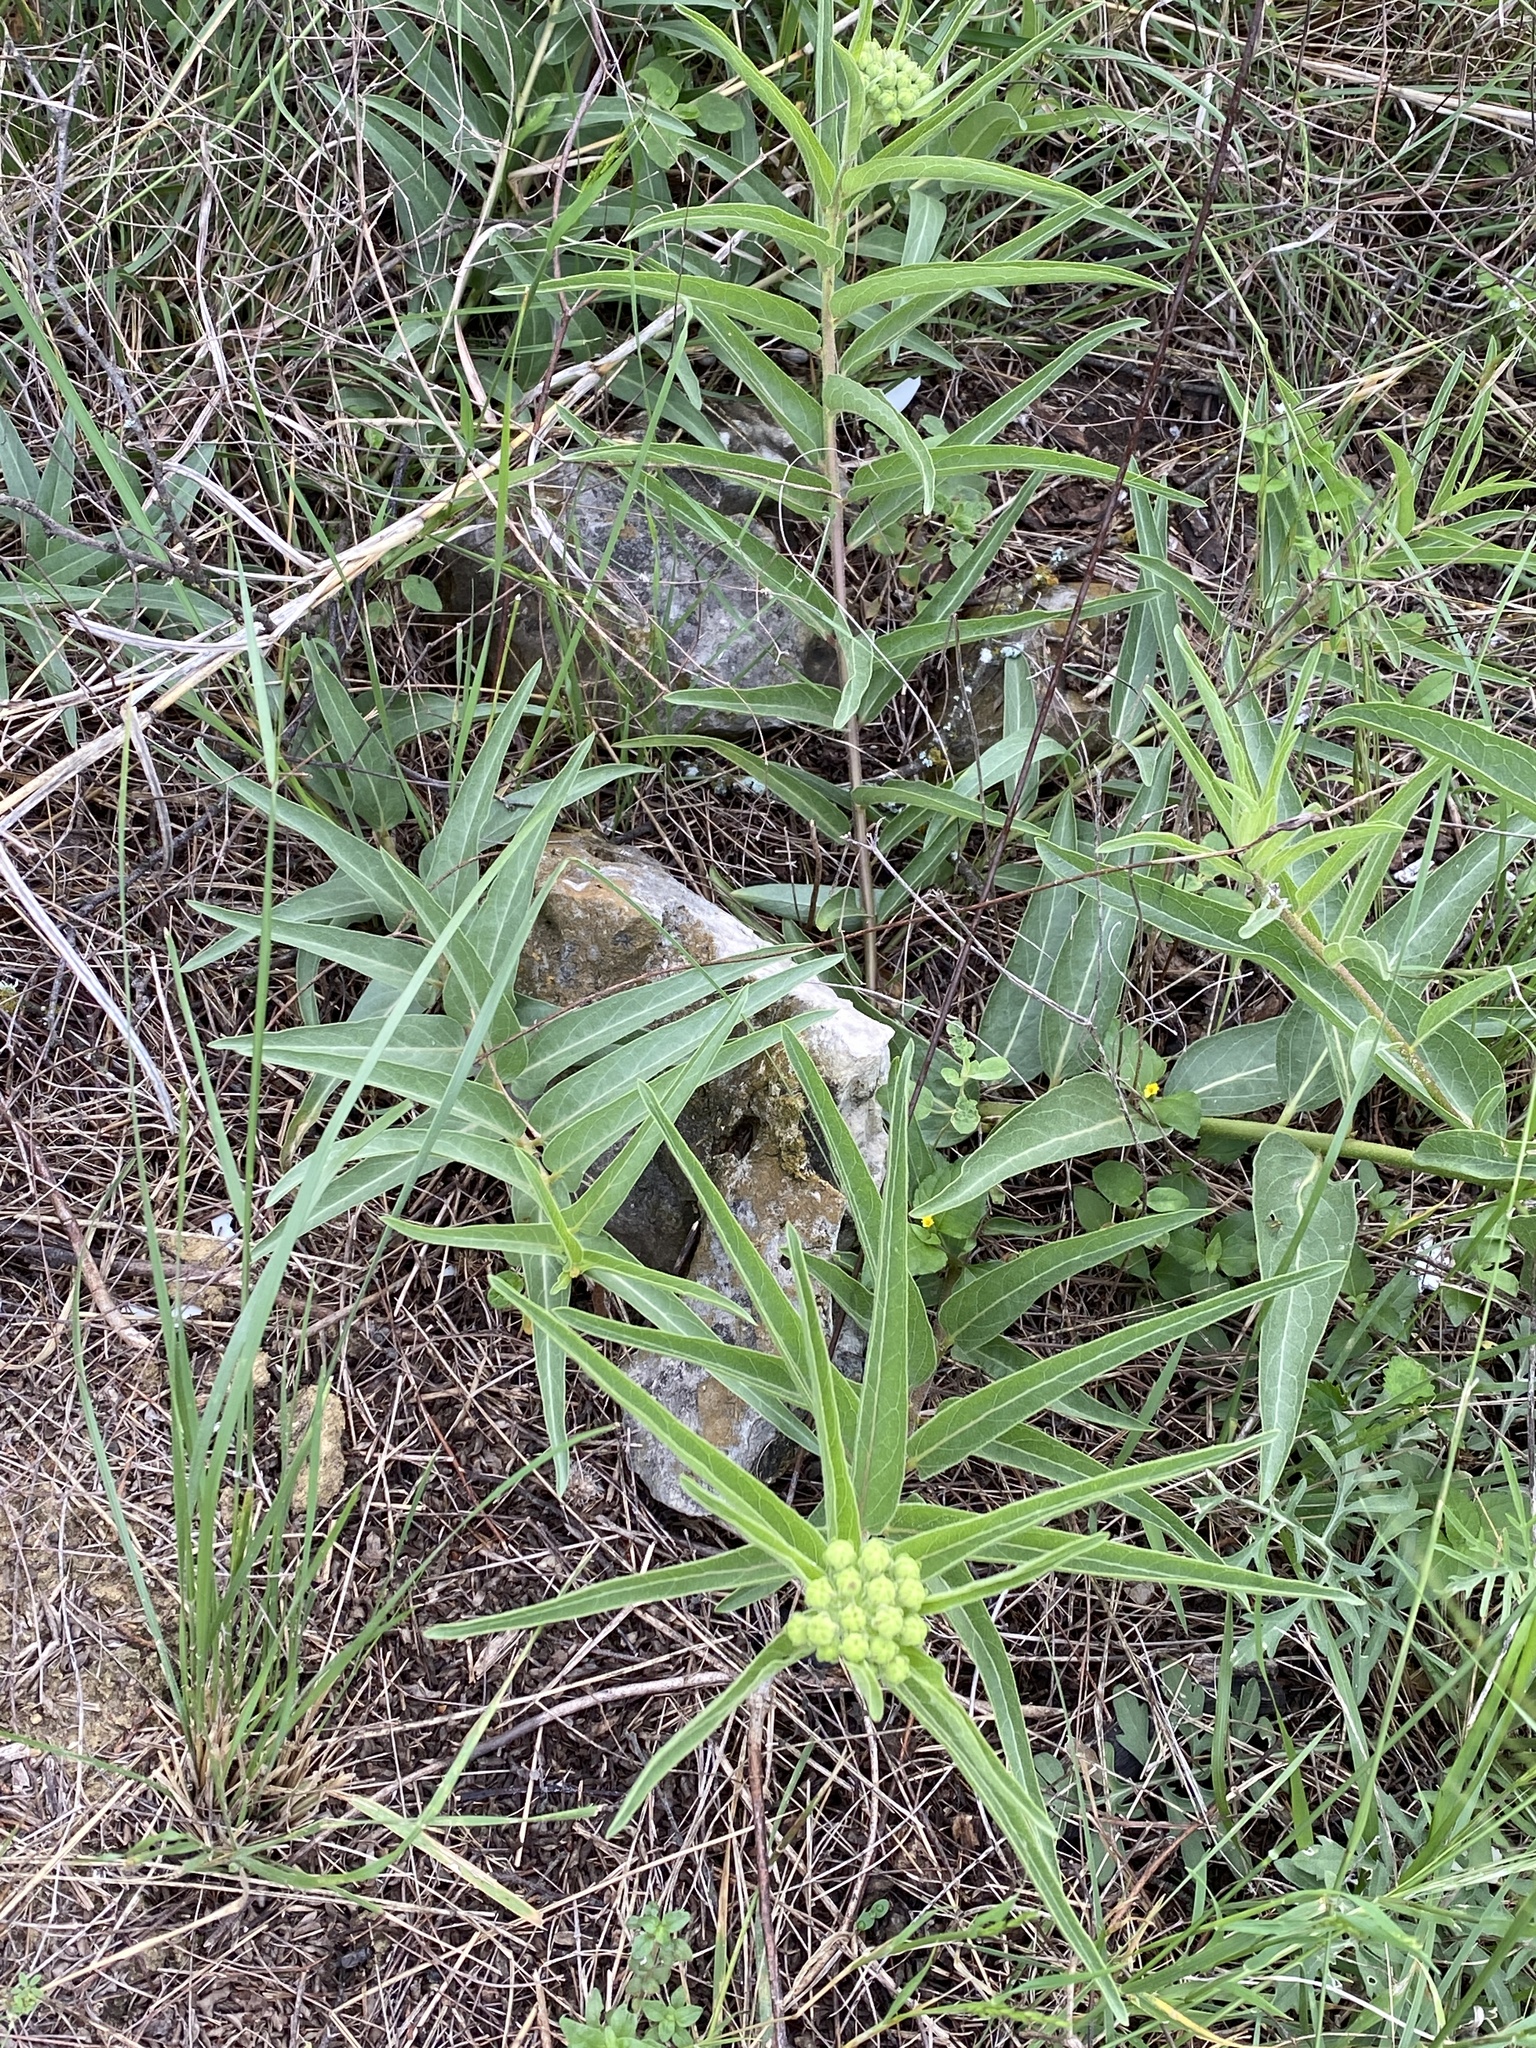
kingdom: Plantae
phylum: Tracheophyta
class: Magnoliopsida
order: Gentianales
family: Apocynaceae
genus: Asclepias
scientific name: Asclepias asperula
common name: Antelope horns
